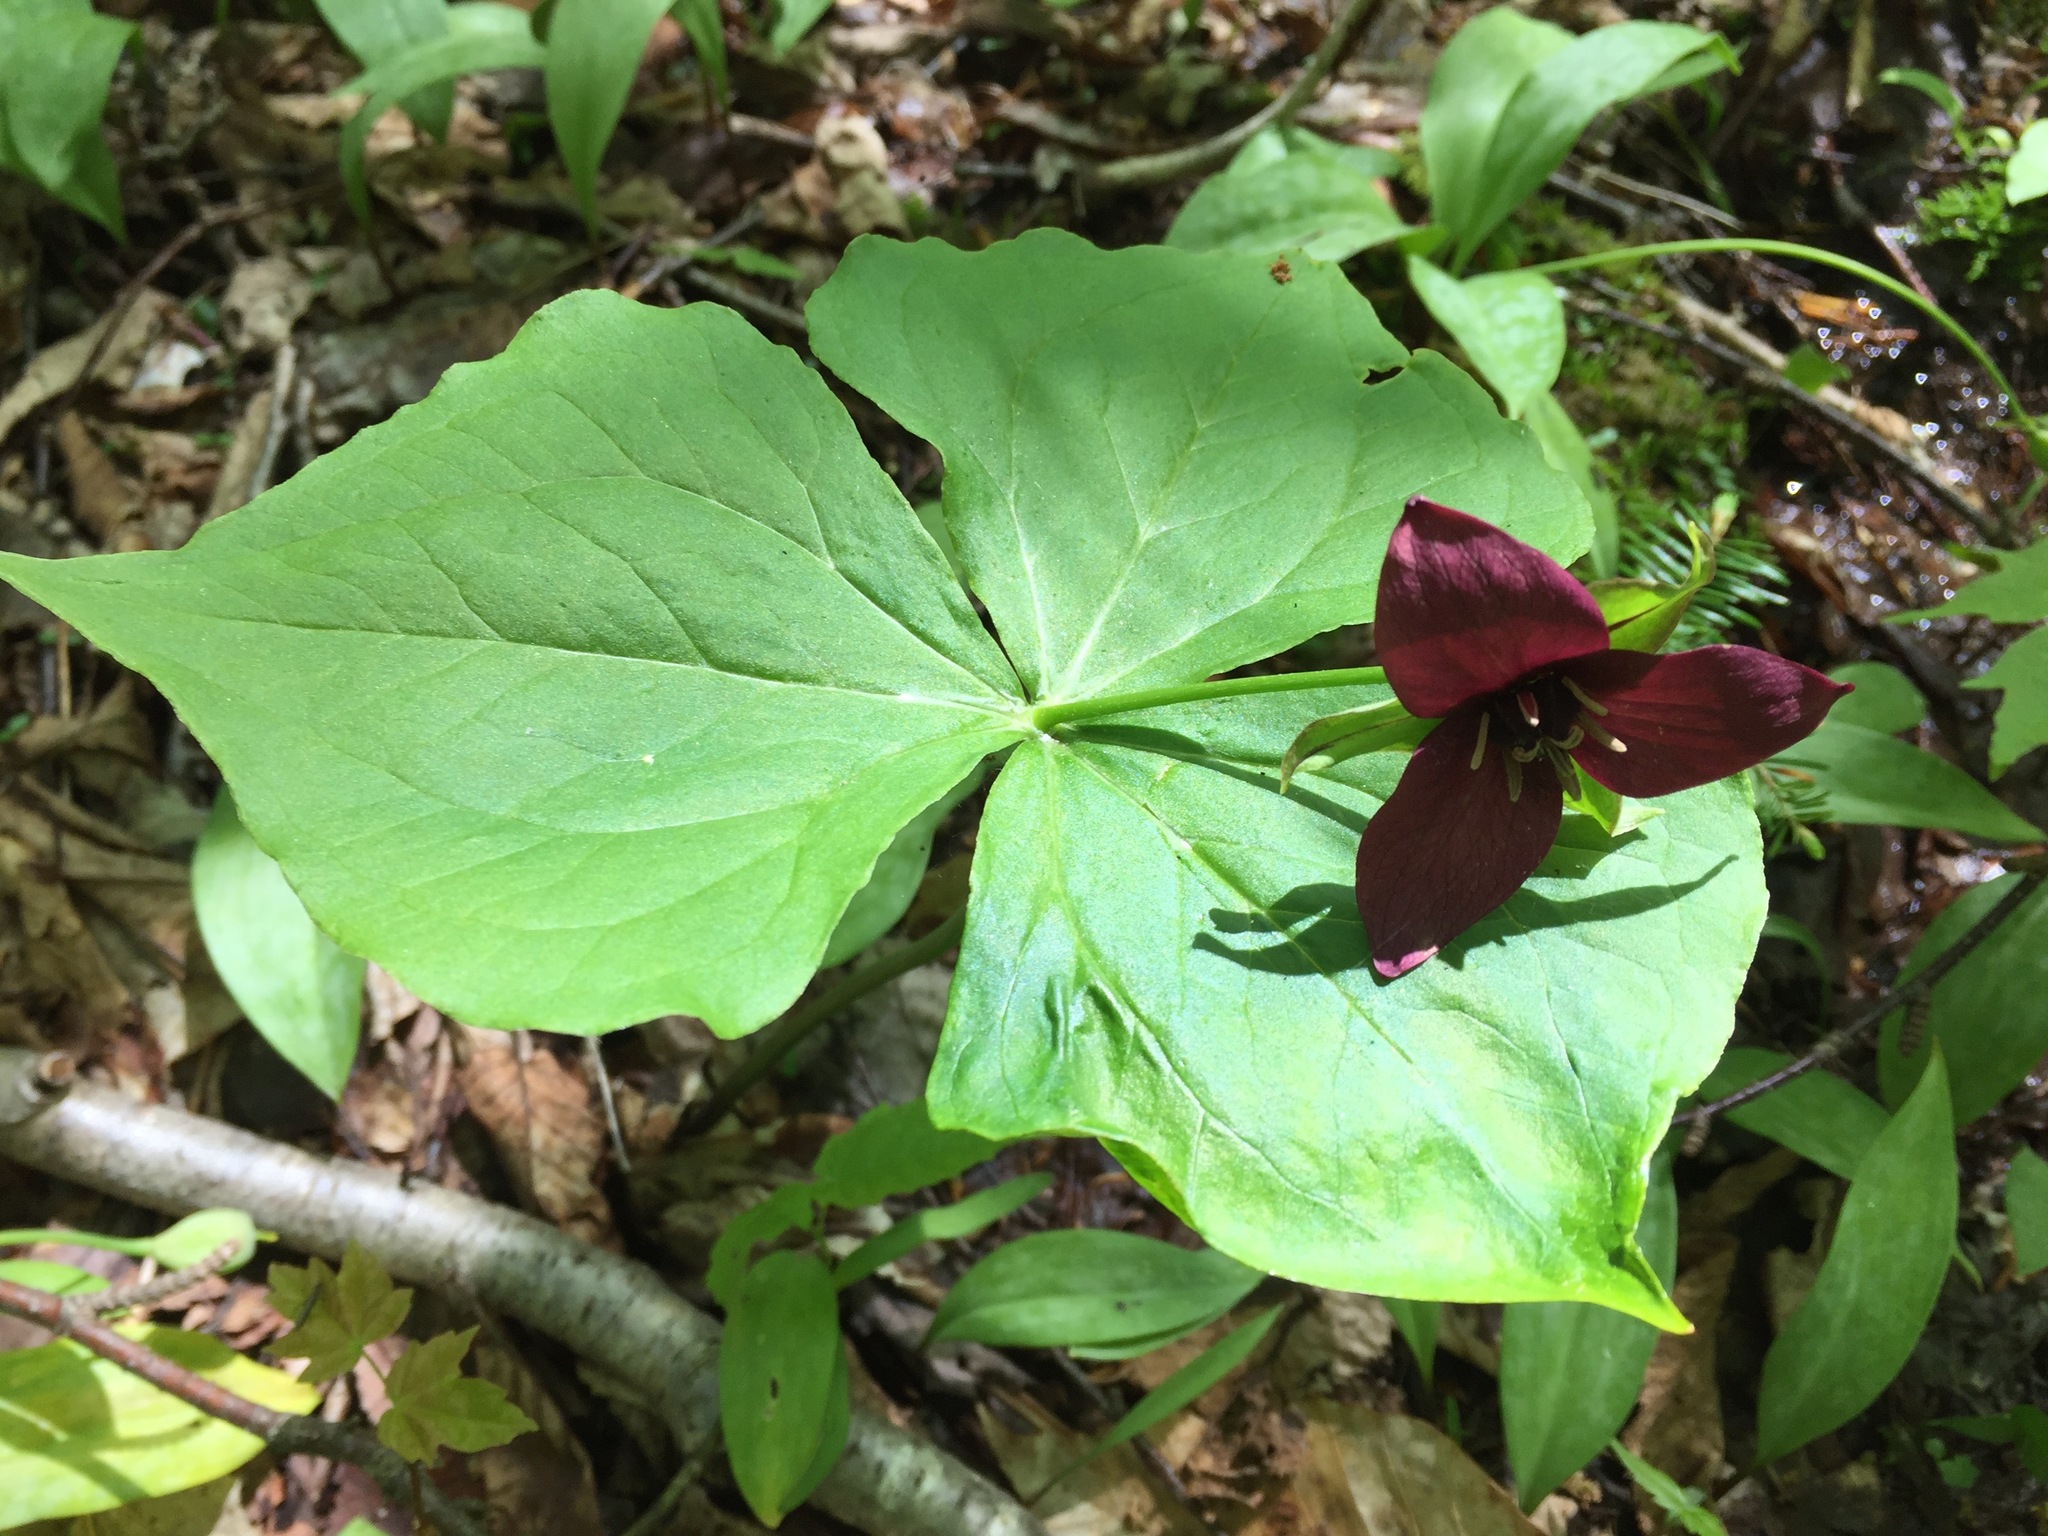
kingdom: Plantae
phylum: Tracheophyta
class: Liliopsida
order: Liliales
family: Melanthiaceae
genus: Trillium
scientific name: Trillium erectum
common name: Purple trillium
